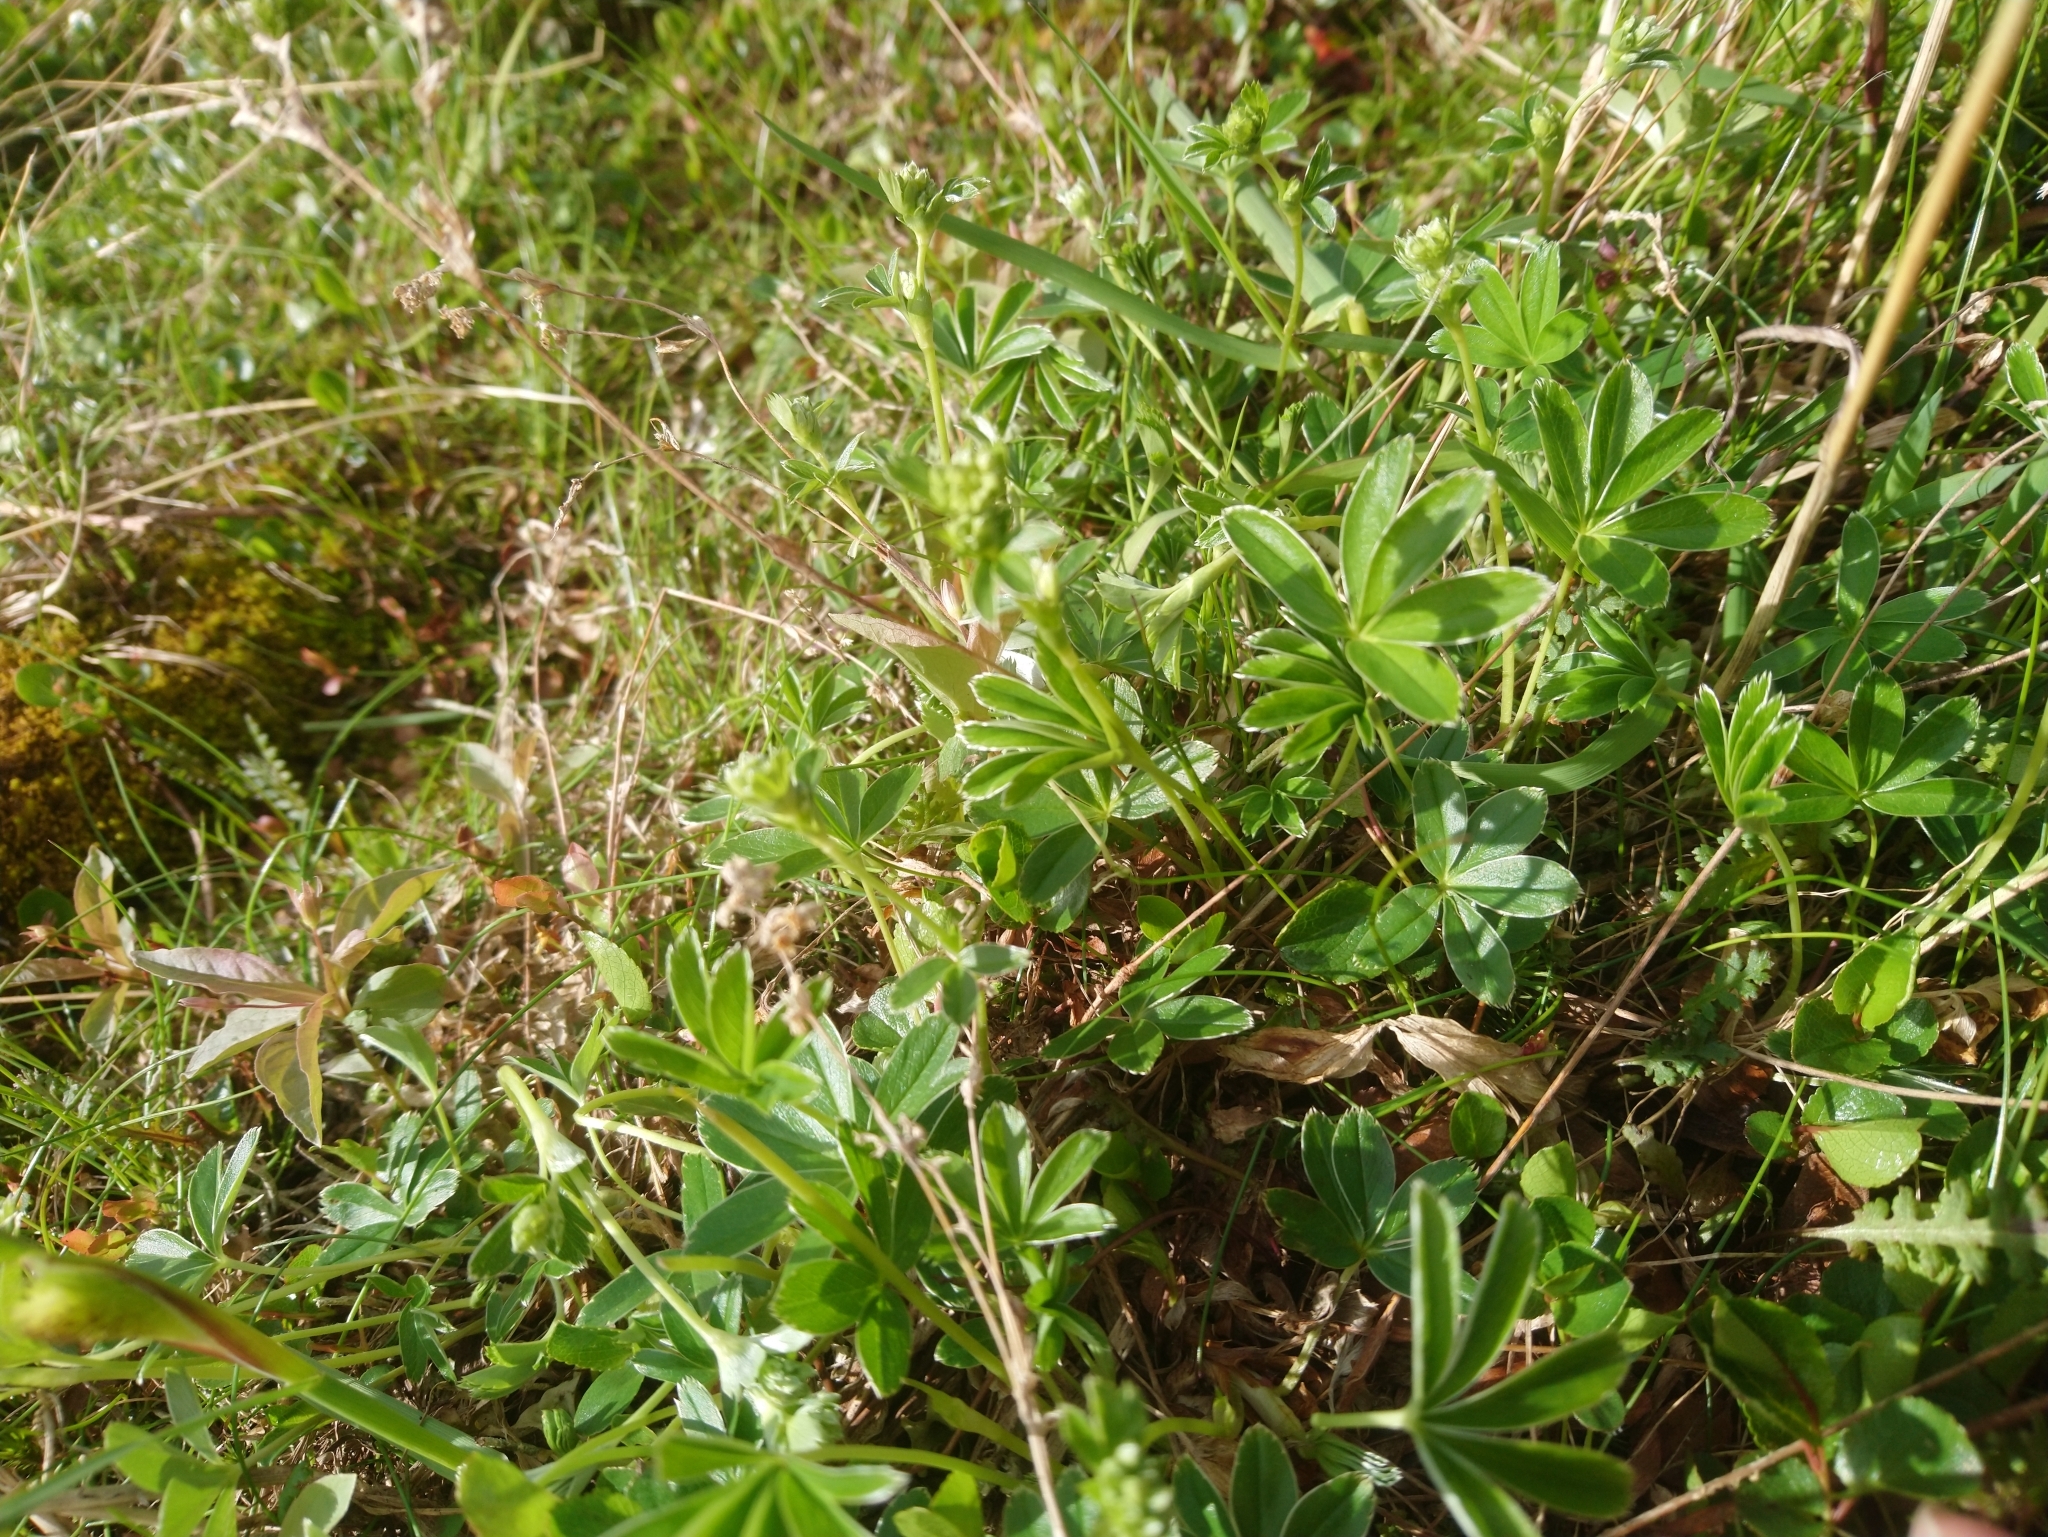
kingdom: Plantae
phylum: Tracheophyta
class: Magnoliopsida
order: Rosales
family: Rosaceae
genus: Alchemilla
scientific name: Alchemilla alpina
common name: Alpine lady's-mantle
